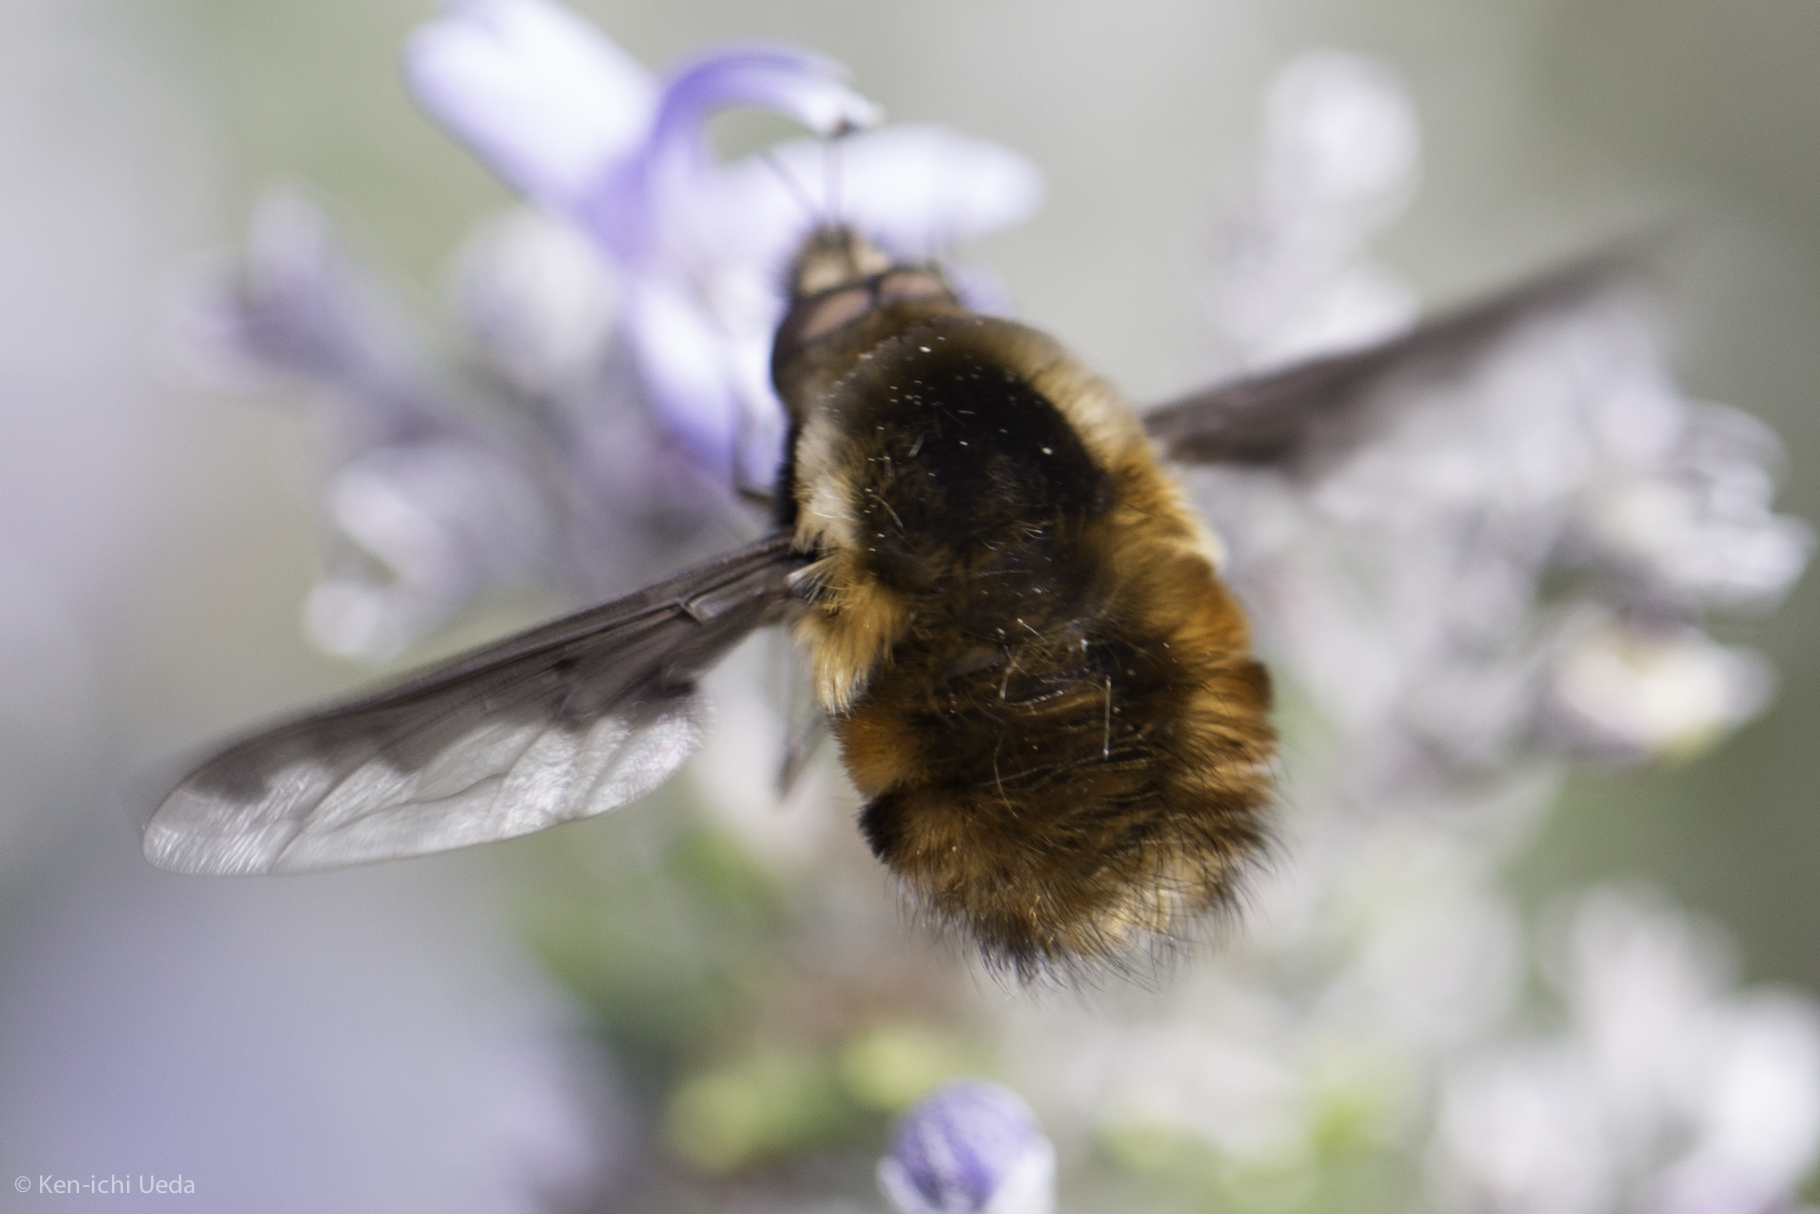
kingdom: Animalia
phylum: Arthropoda
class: Insecta
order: Diptera
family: Bombyliidae
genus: Bombylius
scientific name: Bombylius major
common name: Bee fly
